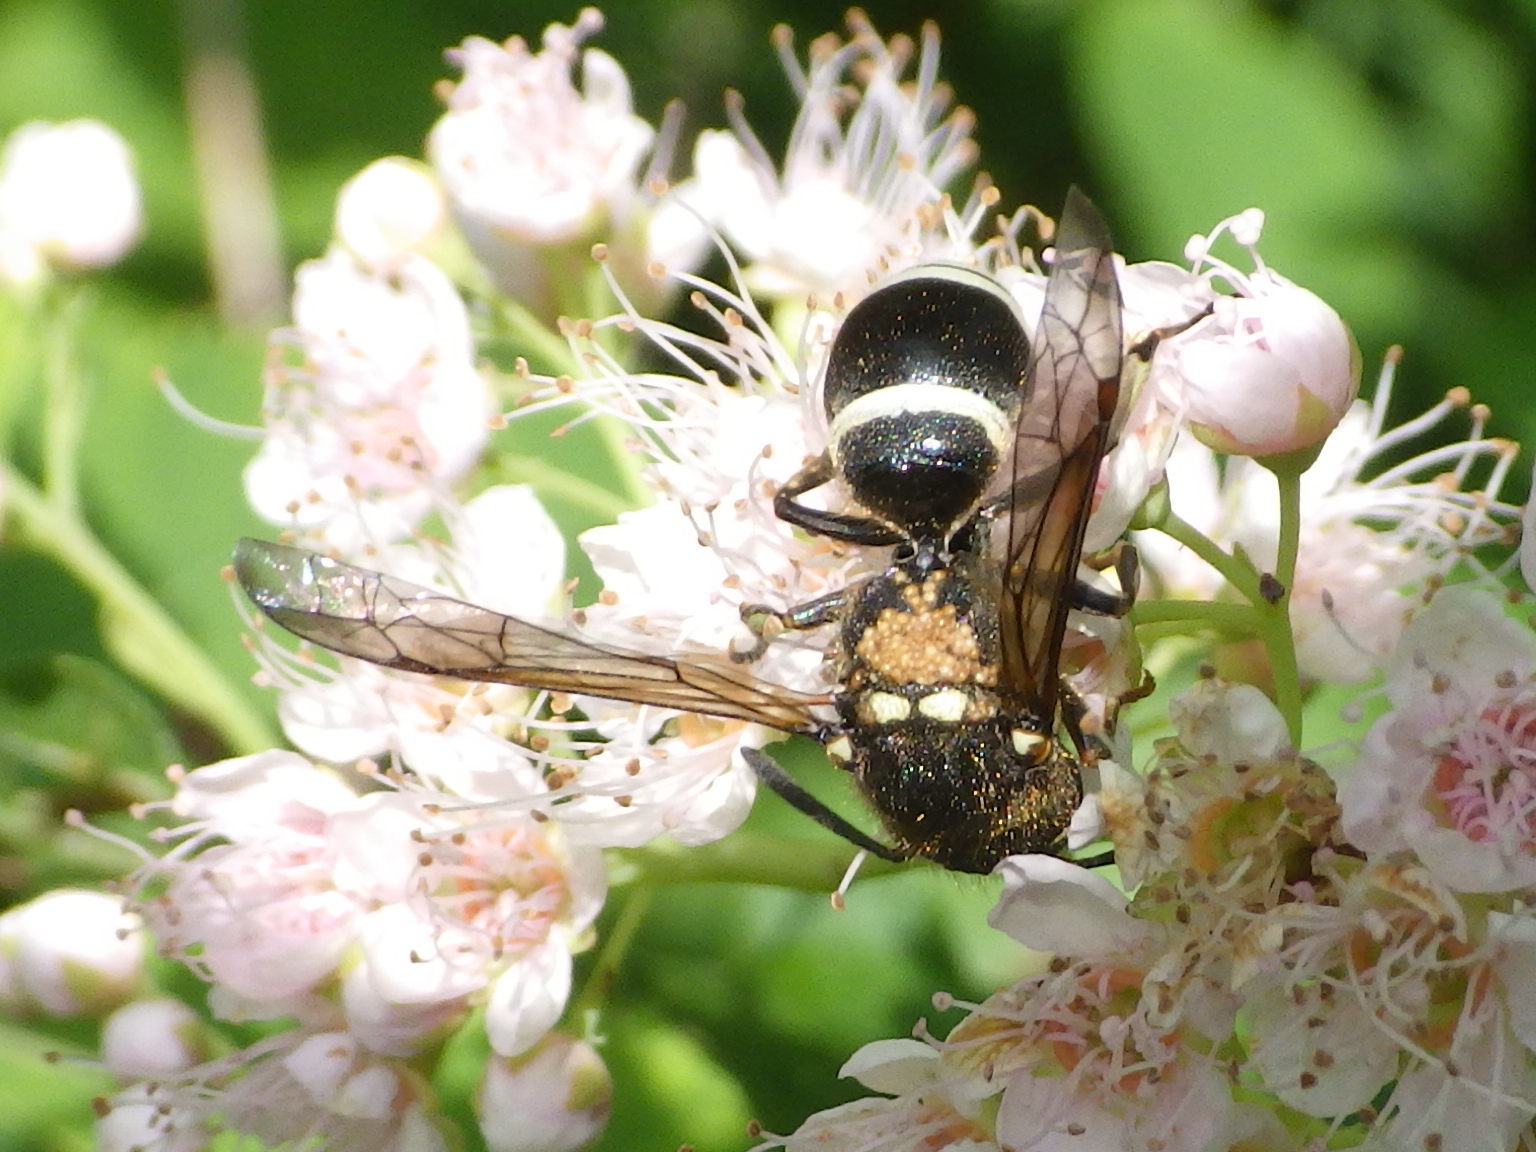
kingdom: Animalia
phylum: Arthropoda
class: Insecta
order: Hymenoptera
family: Vespidae
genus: Ancistrocerus
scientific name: Ancistrocerus albophaleratus
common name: White-banded potter wasp
